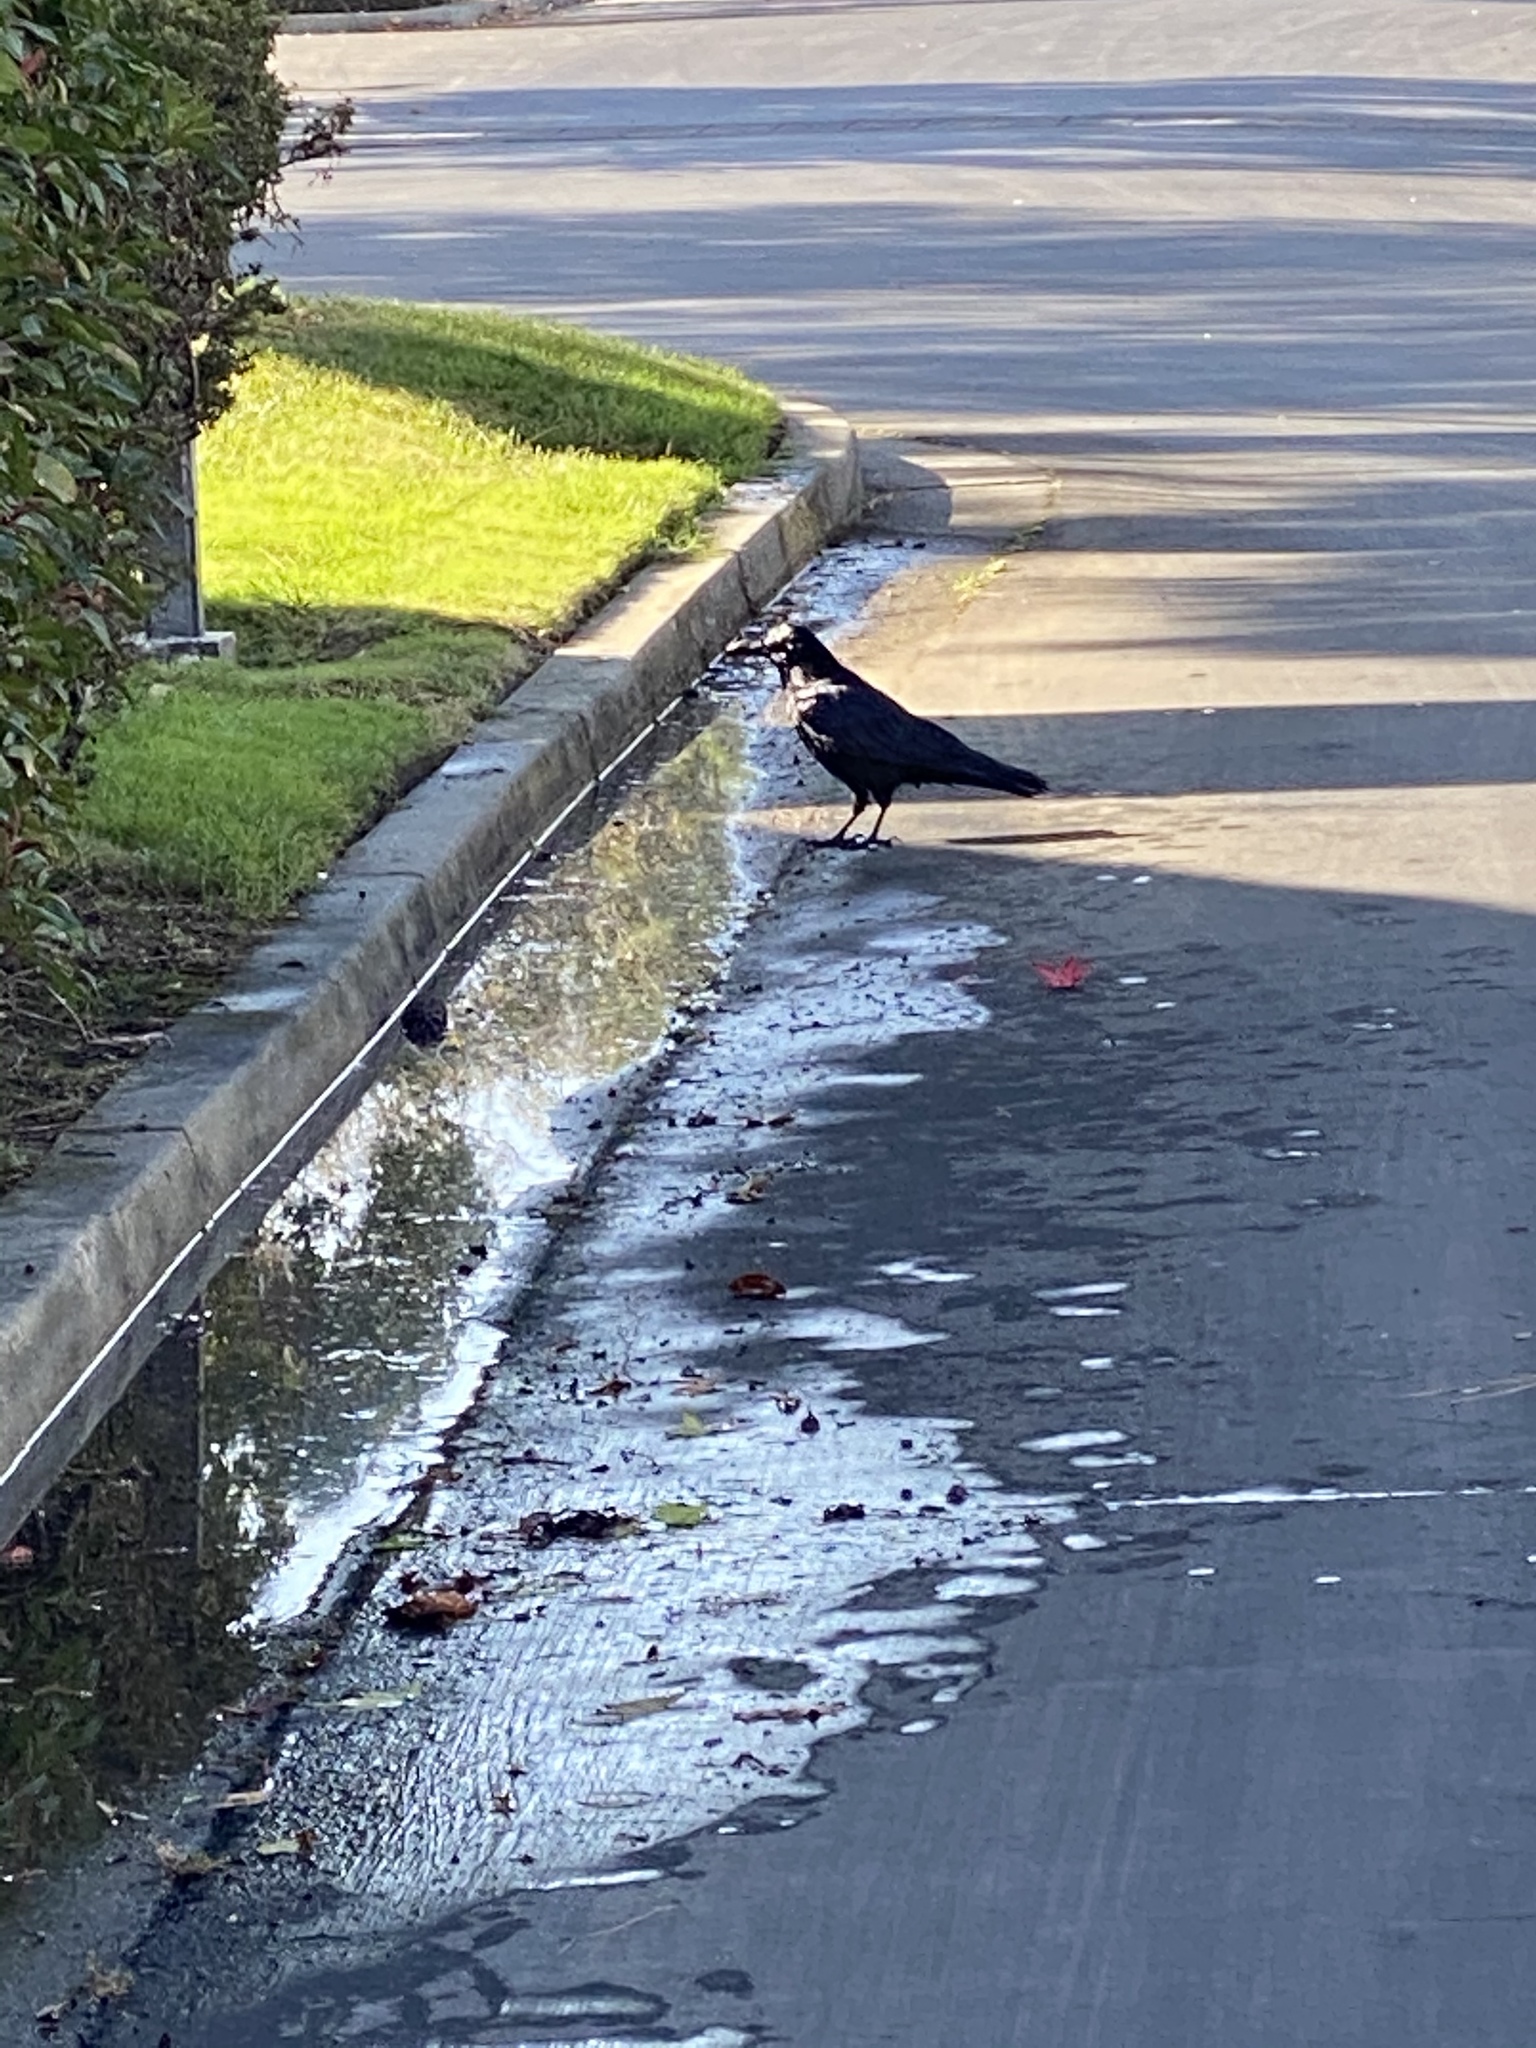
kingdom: Animalia
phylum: Chordata
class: Aves
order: Passeriformes
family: Corvidae
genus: Corvus
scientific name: Corvus corax
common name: Common raven
